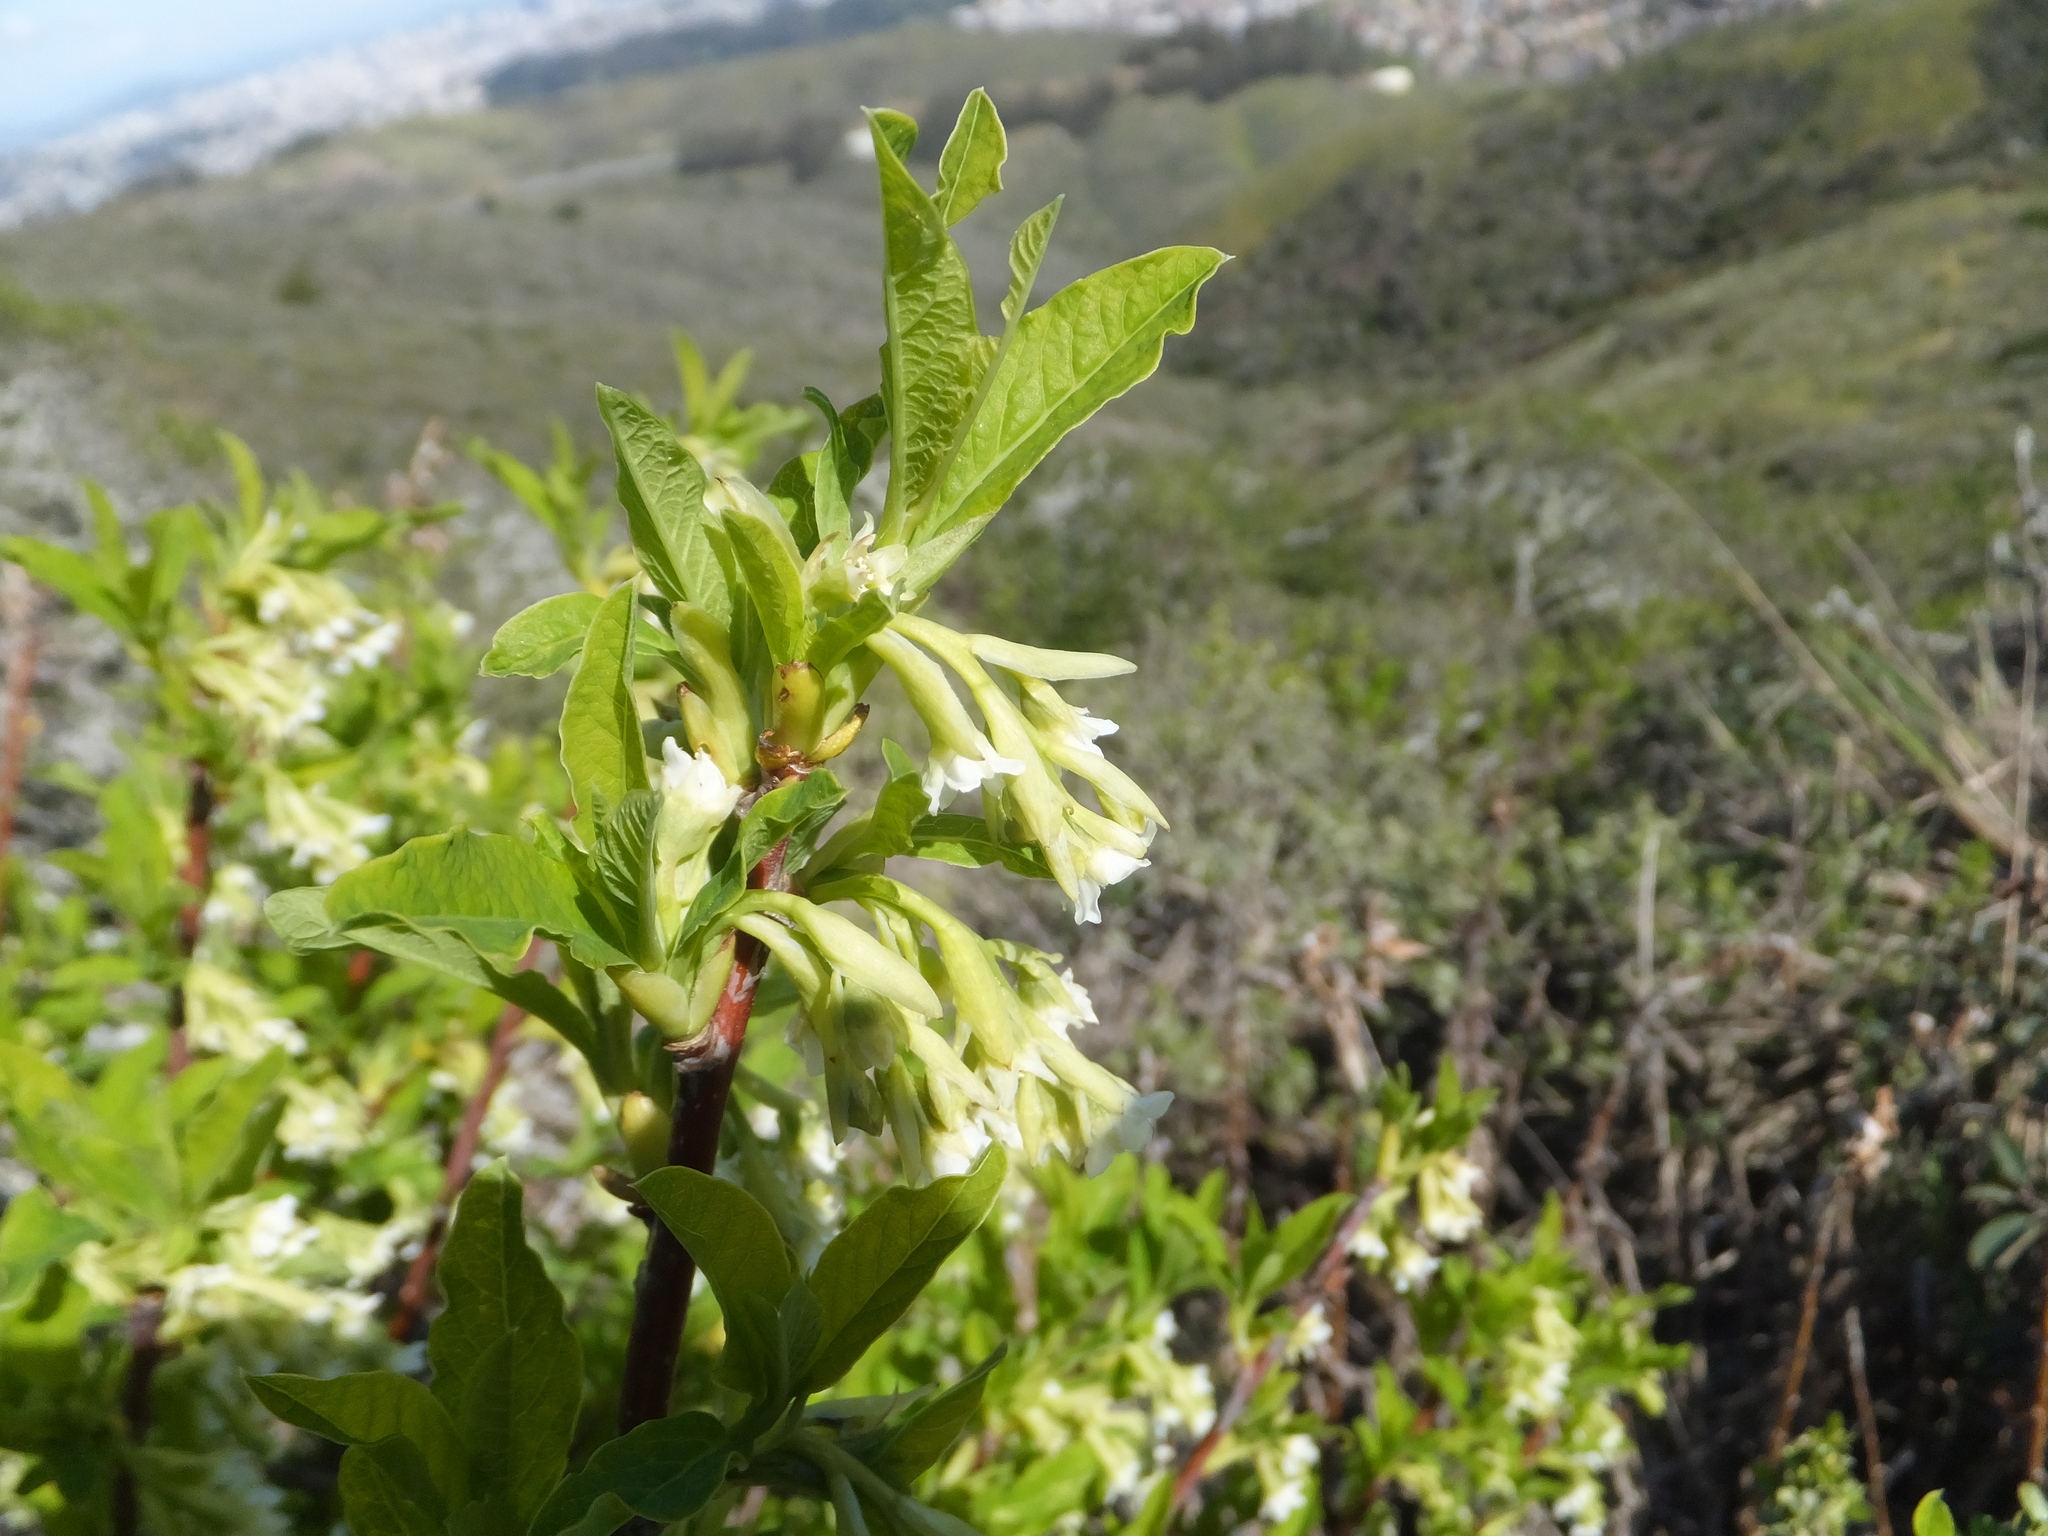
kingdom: Plantae
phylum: Tracheophyta
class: Magnoliopsida
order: Rosales
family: Rosaceae
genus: Oemleria
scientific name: Oemleria cerasiformis
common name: Osoberry
